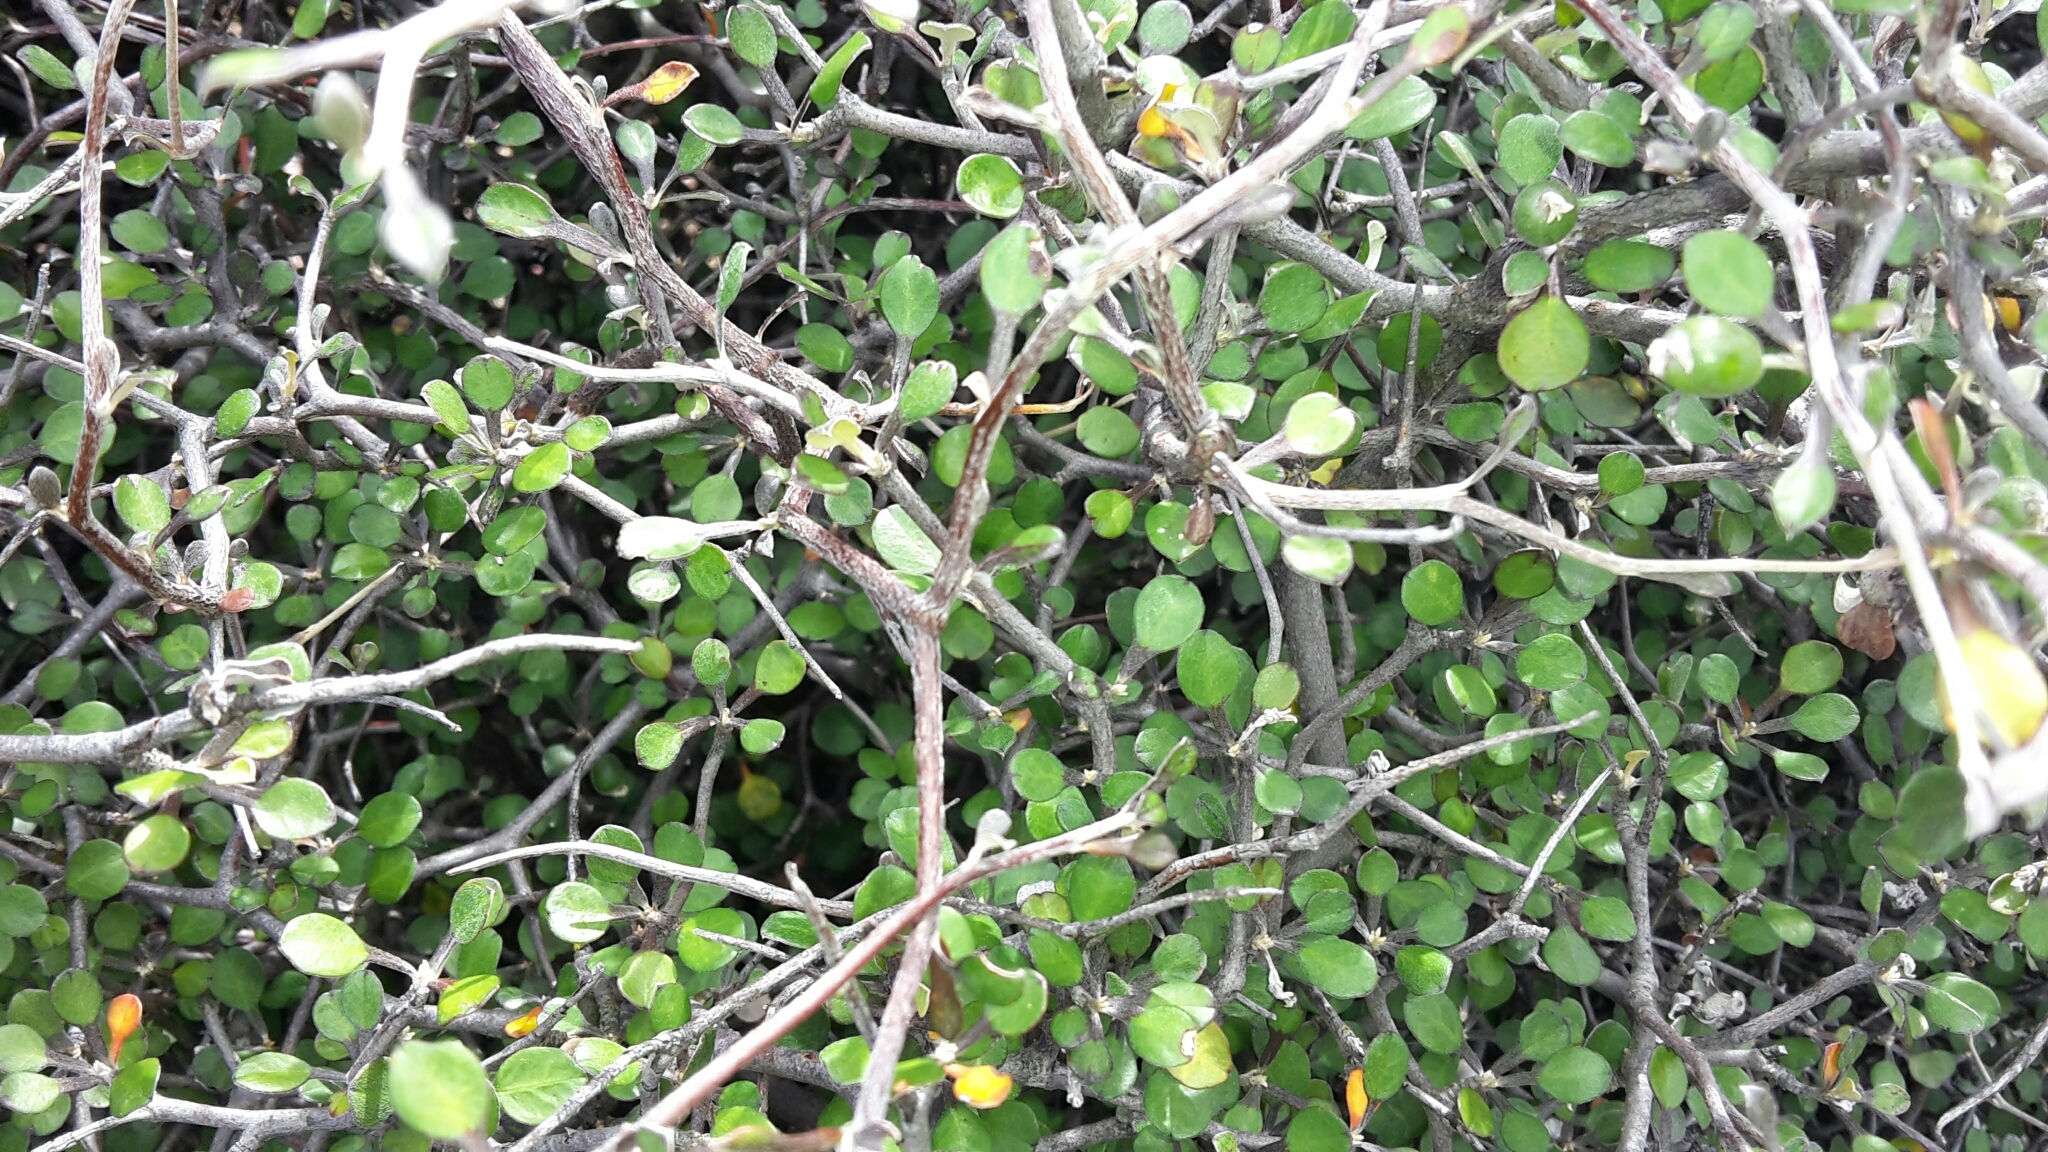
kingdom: Plantae
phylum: Tracheophyta
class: Magnoliopsida
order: Asterales
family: Argophyllaceae
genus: Corokia
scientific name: Corokia cotoneaster
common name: Wire nettingbush
